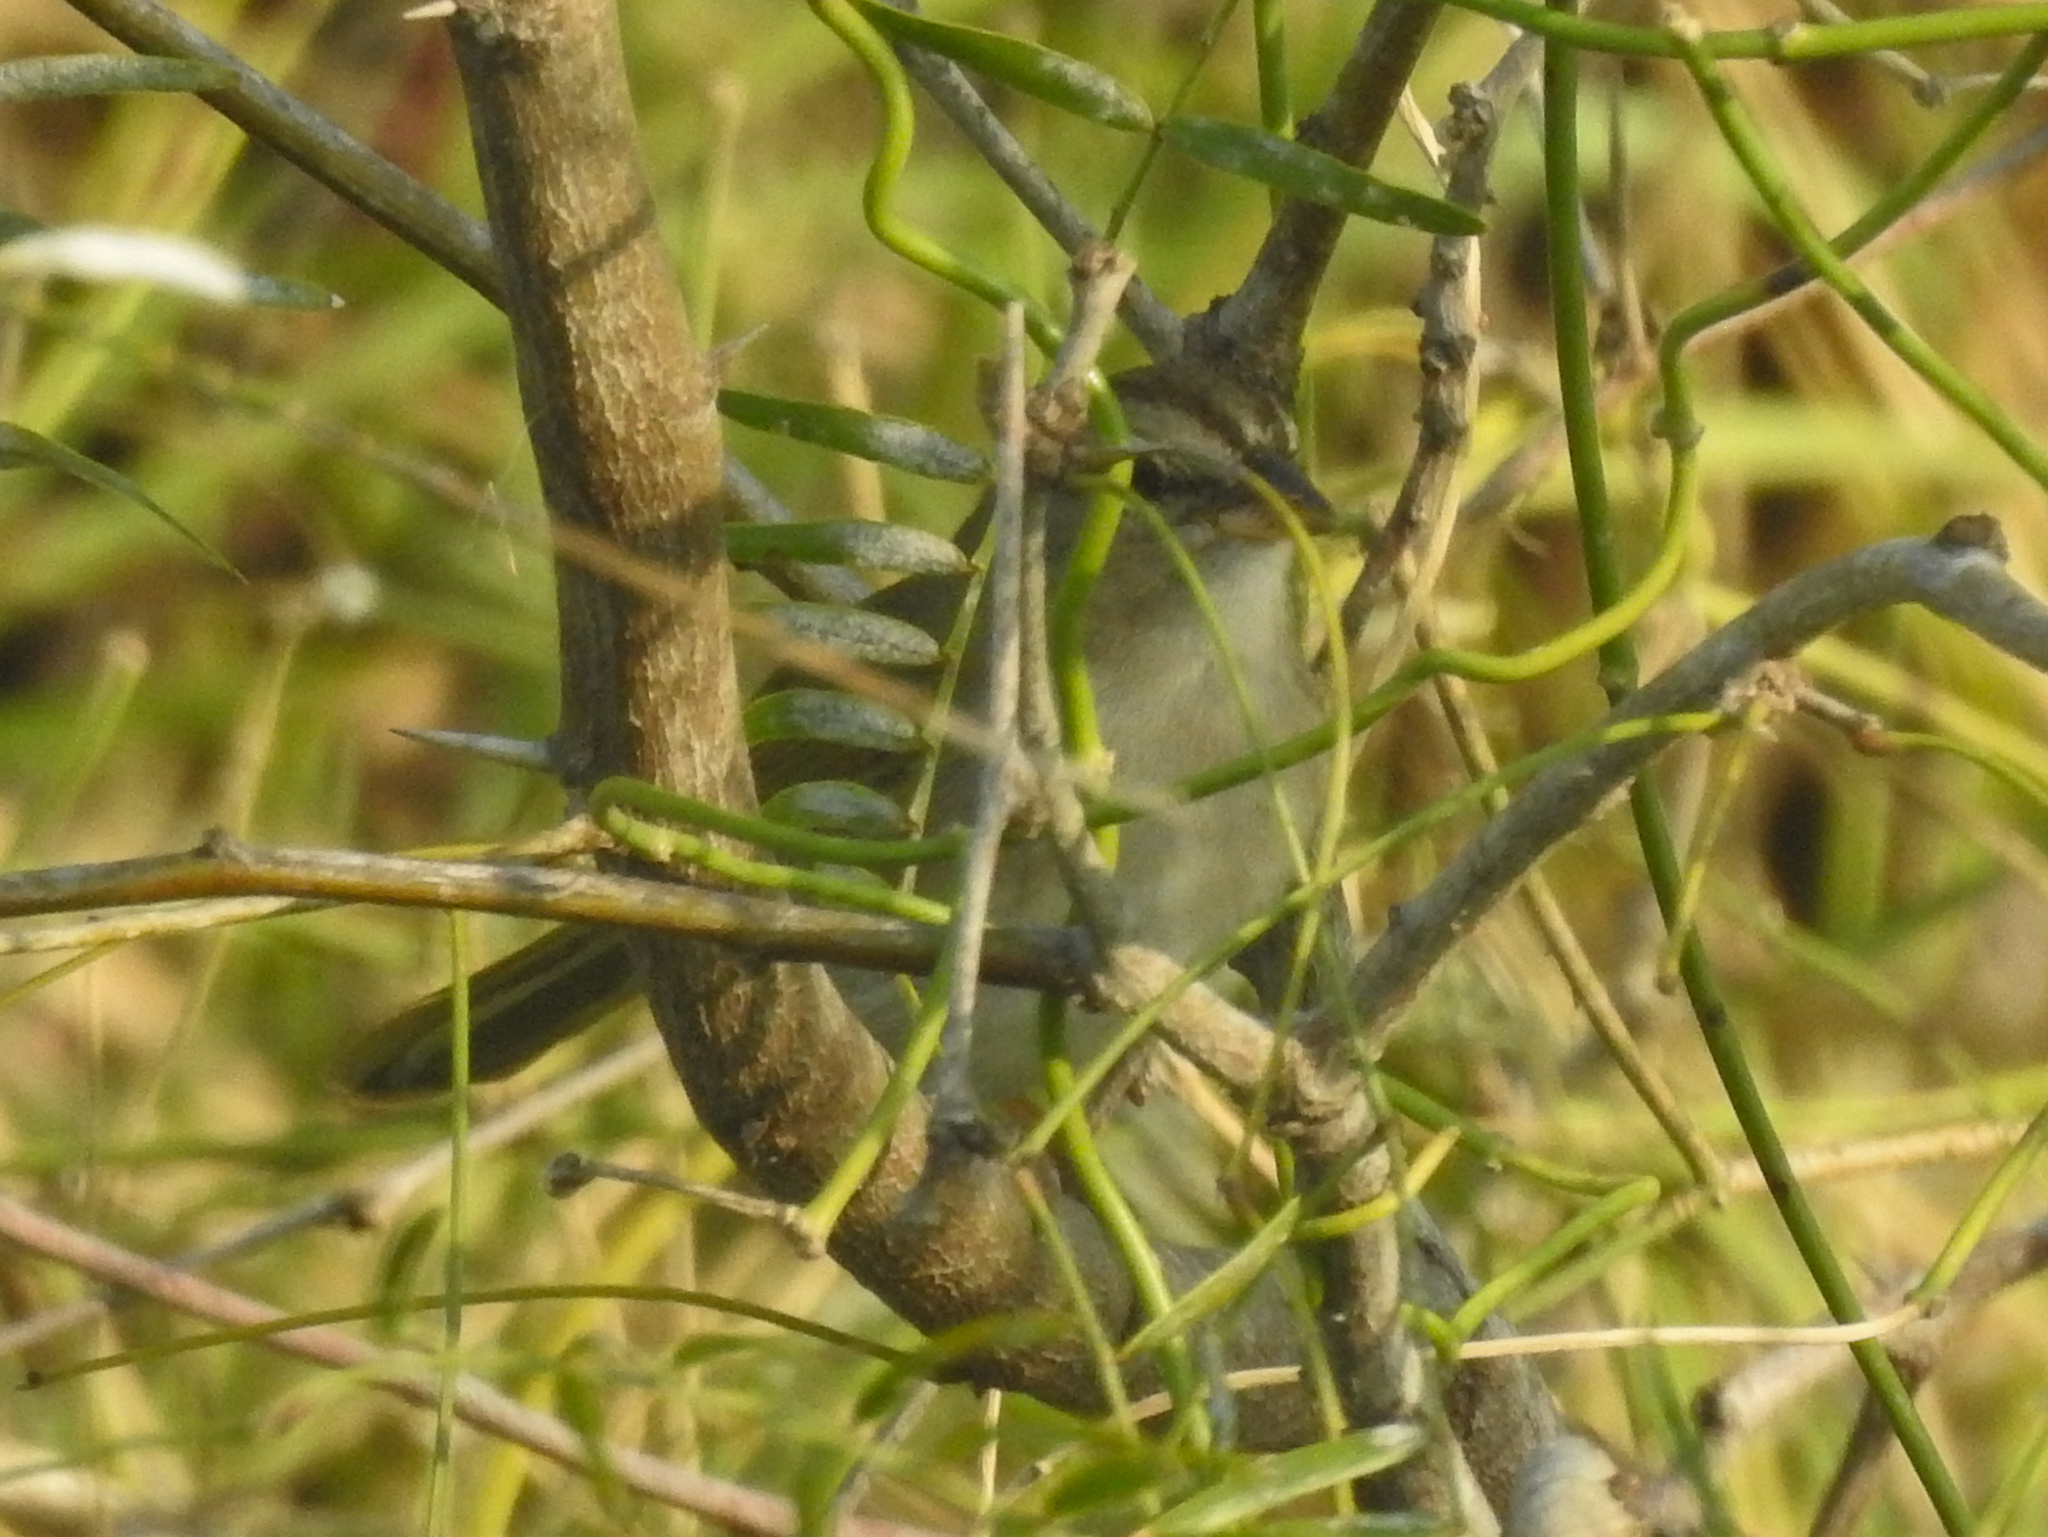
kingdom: Animalia
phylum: Chordata
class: Aves
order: Passeriformes
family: Passerellidae
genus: Arremonops
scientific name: Arremonops rufivirgatus
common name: Olive sparrow
